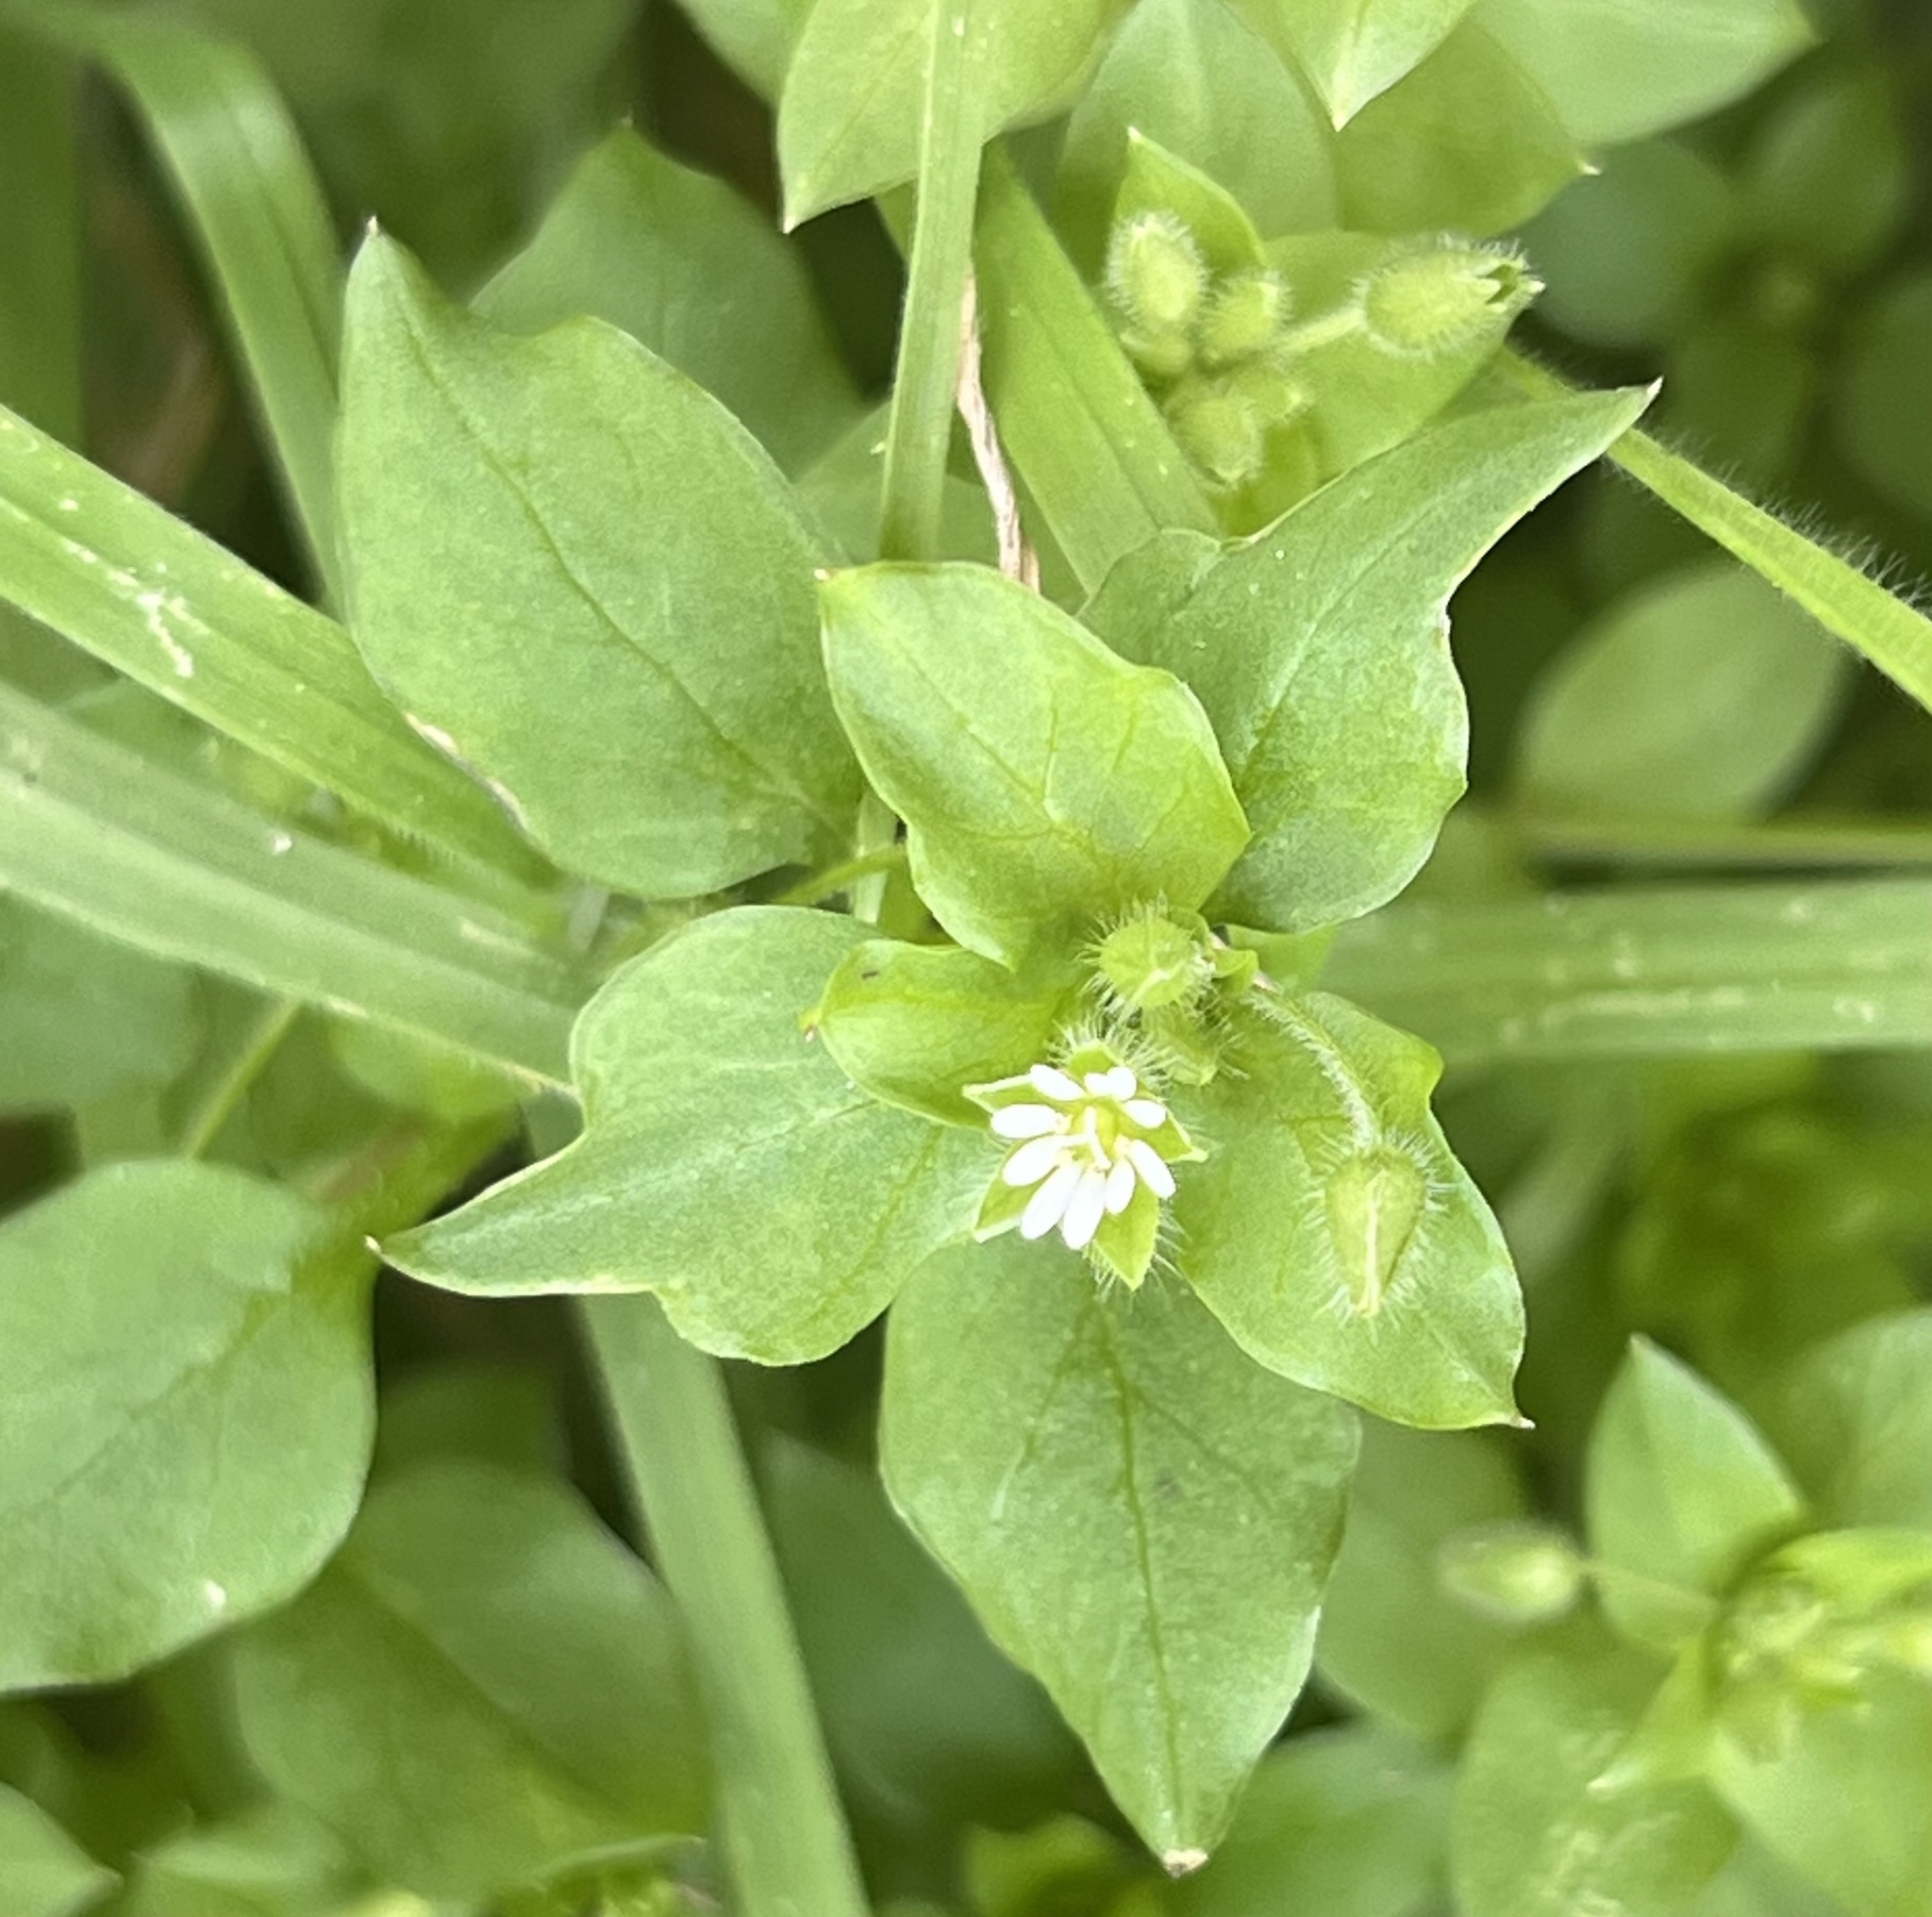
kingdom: Plantae
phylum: Tracheophyta
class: Magnoliopsida
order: Caryophyllales
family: Caryophyllaceae
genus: Stellaria
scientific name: Stellaria media
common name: Common chickweed
